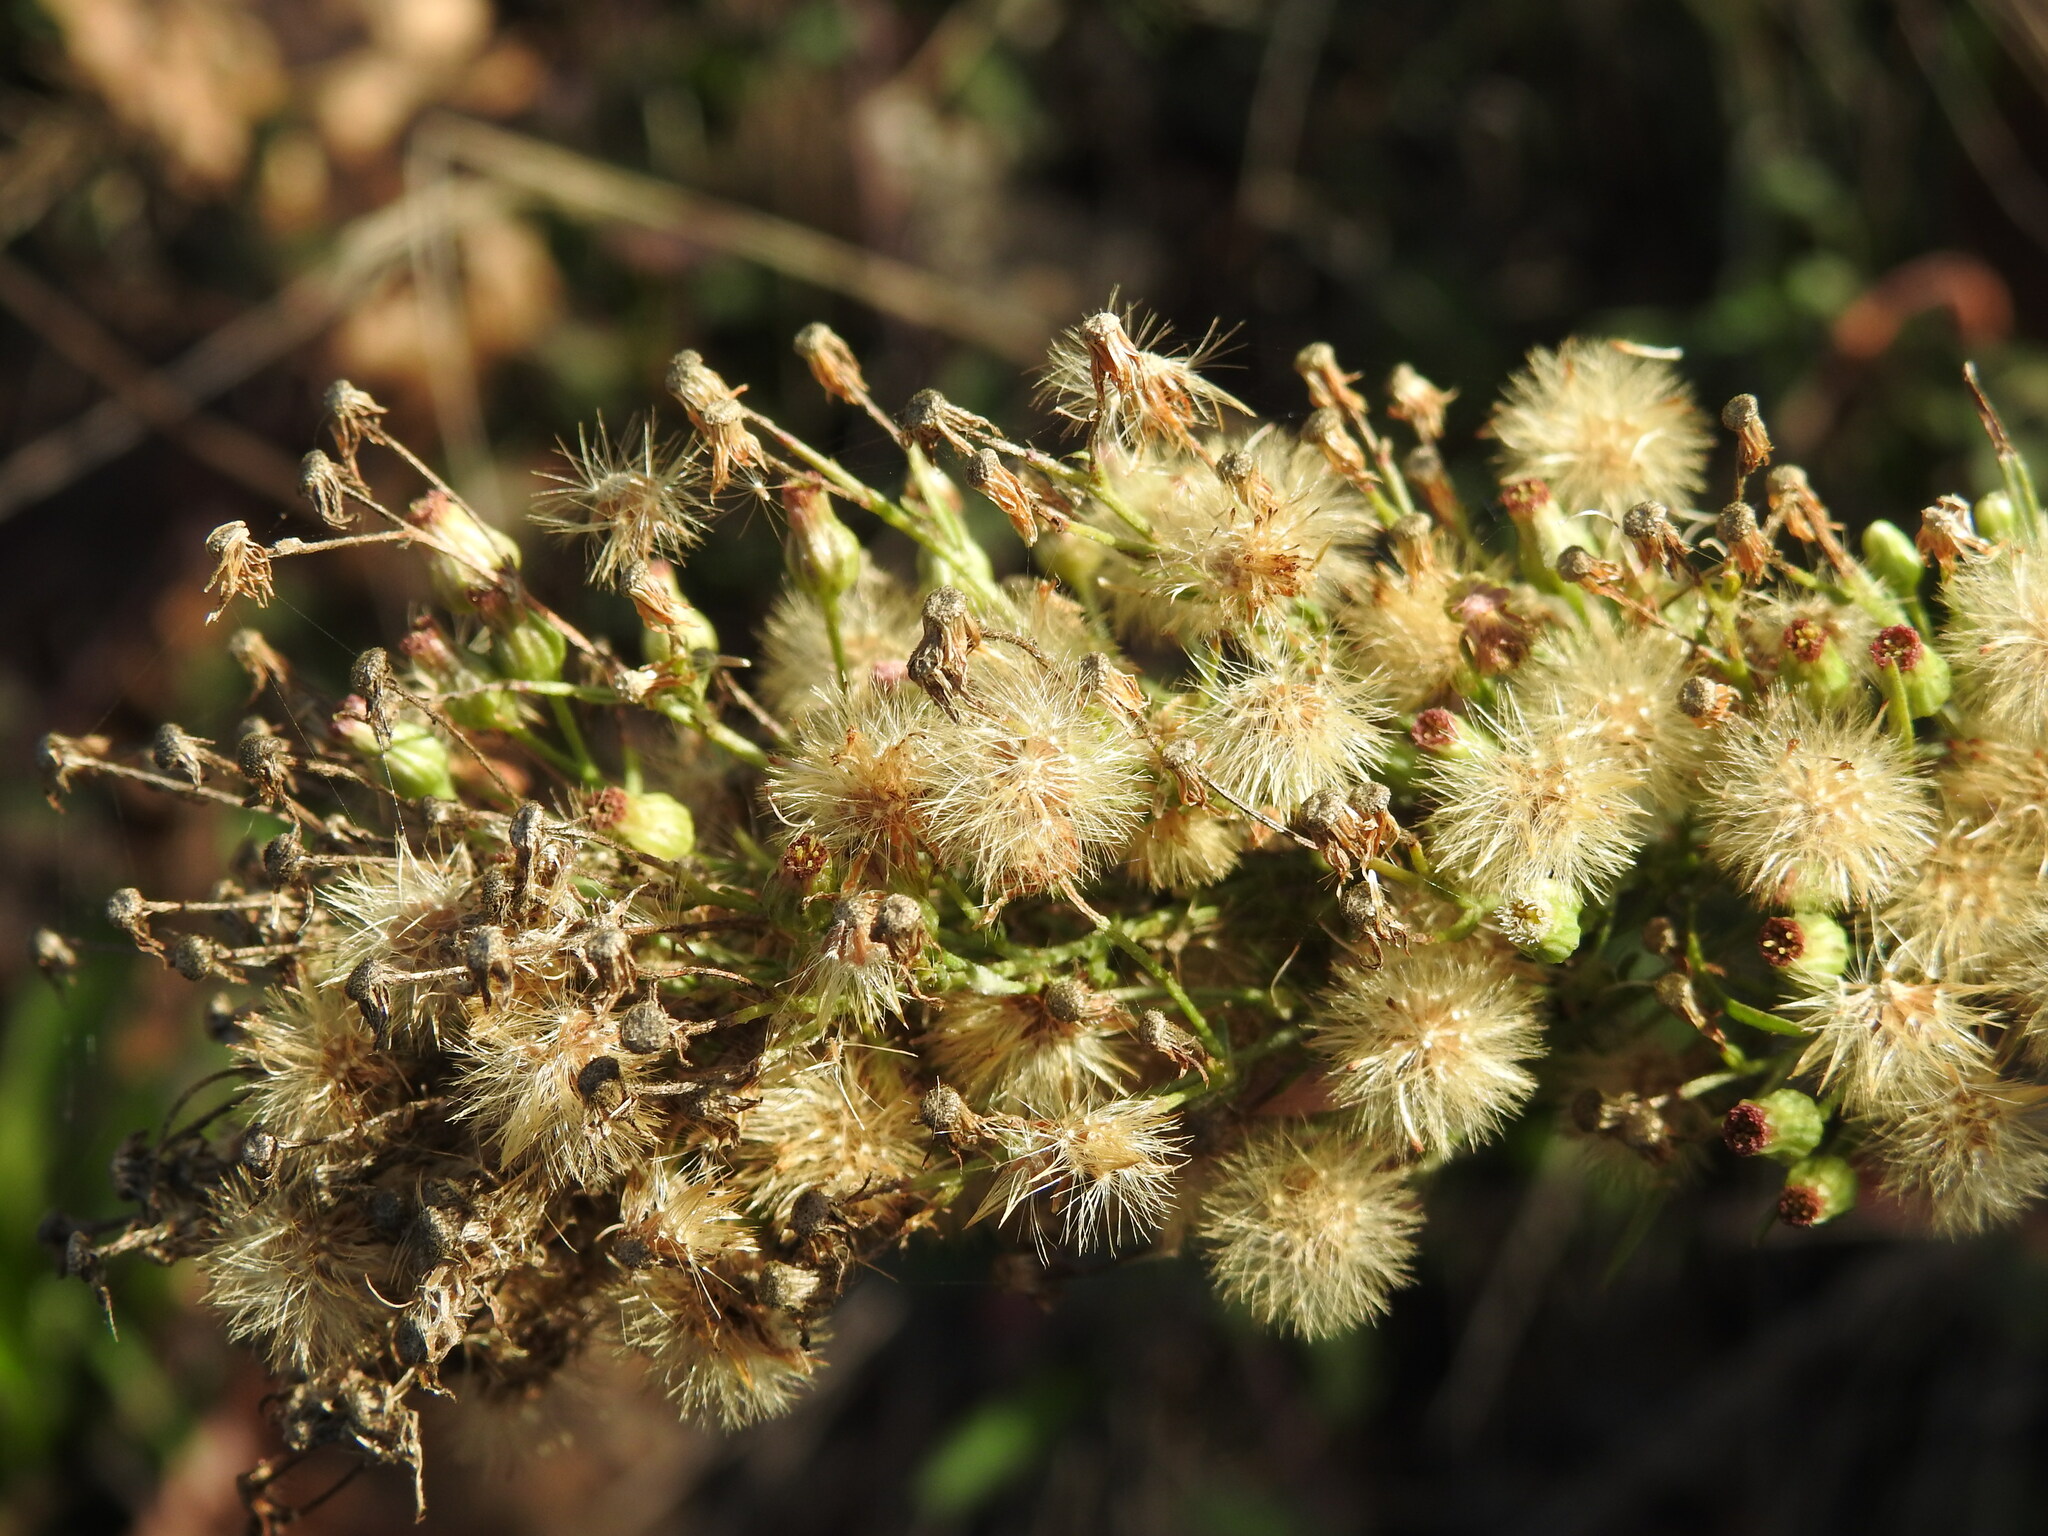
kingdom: Plantae
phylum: Tracheophyta
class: Magnoliopsida
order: Asterales
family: Asteraceae
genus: Erigeron
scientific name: Erigeron blakei
